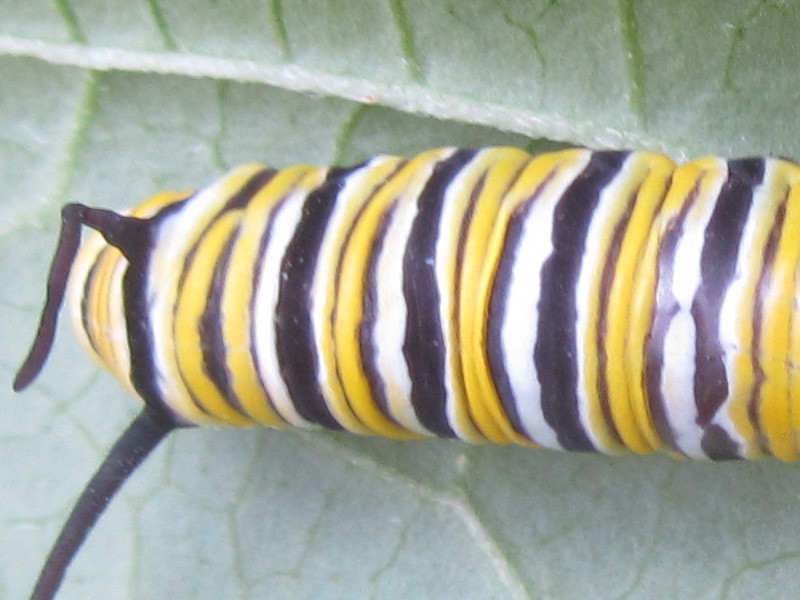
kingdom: Animalia
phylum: Arthropoda
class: Insecta
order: Lepidoptera
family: Nymphalidae
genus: Danaus
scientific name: Danaus plexippus
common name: Monarch
